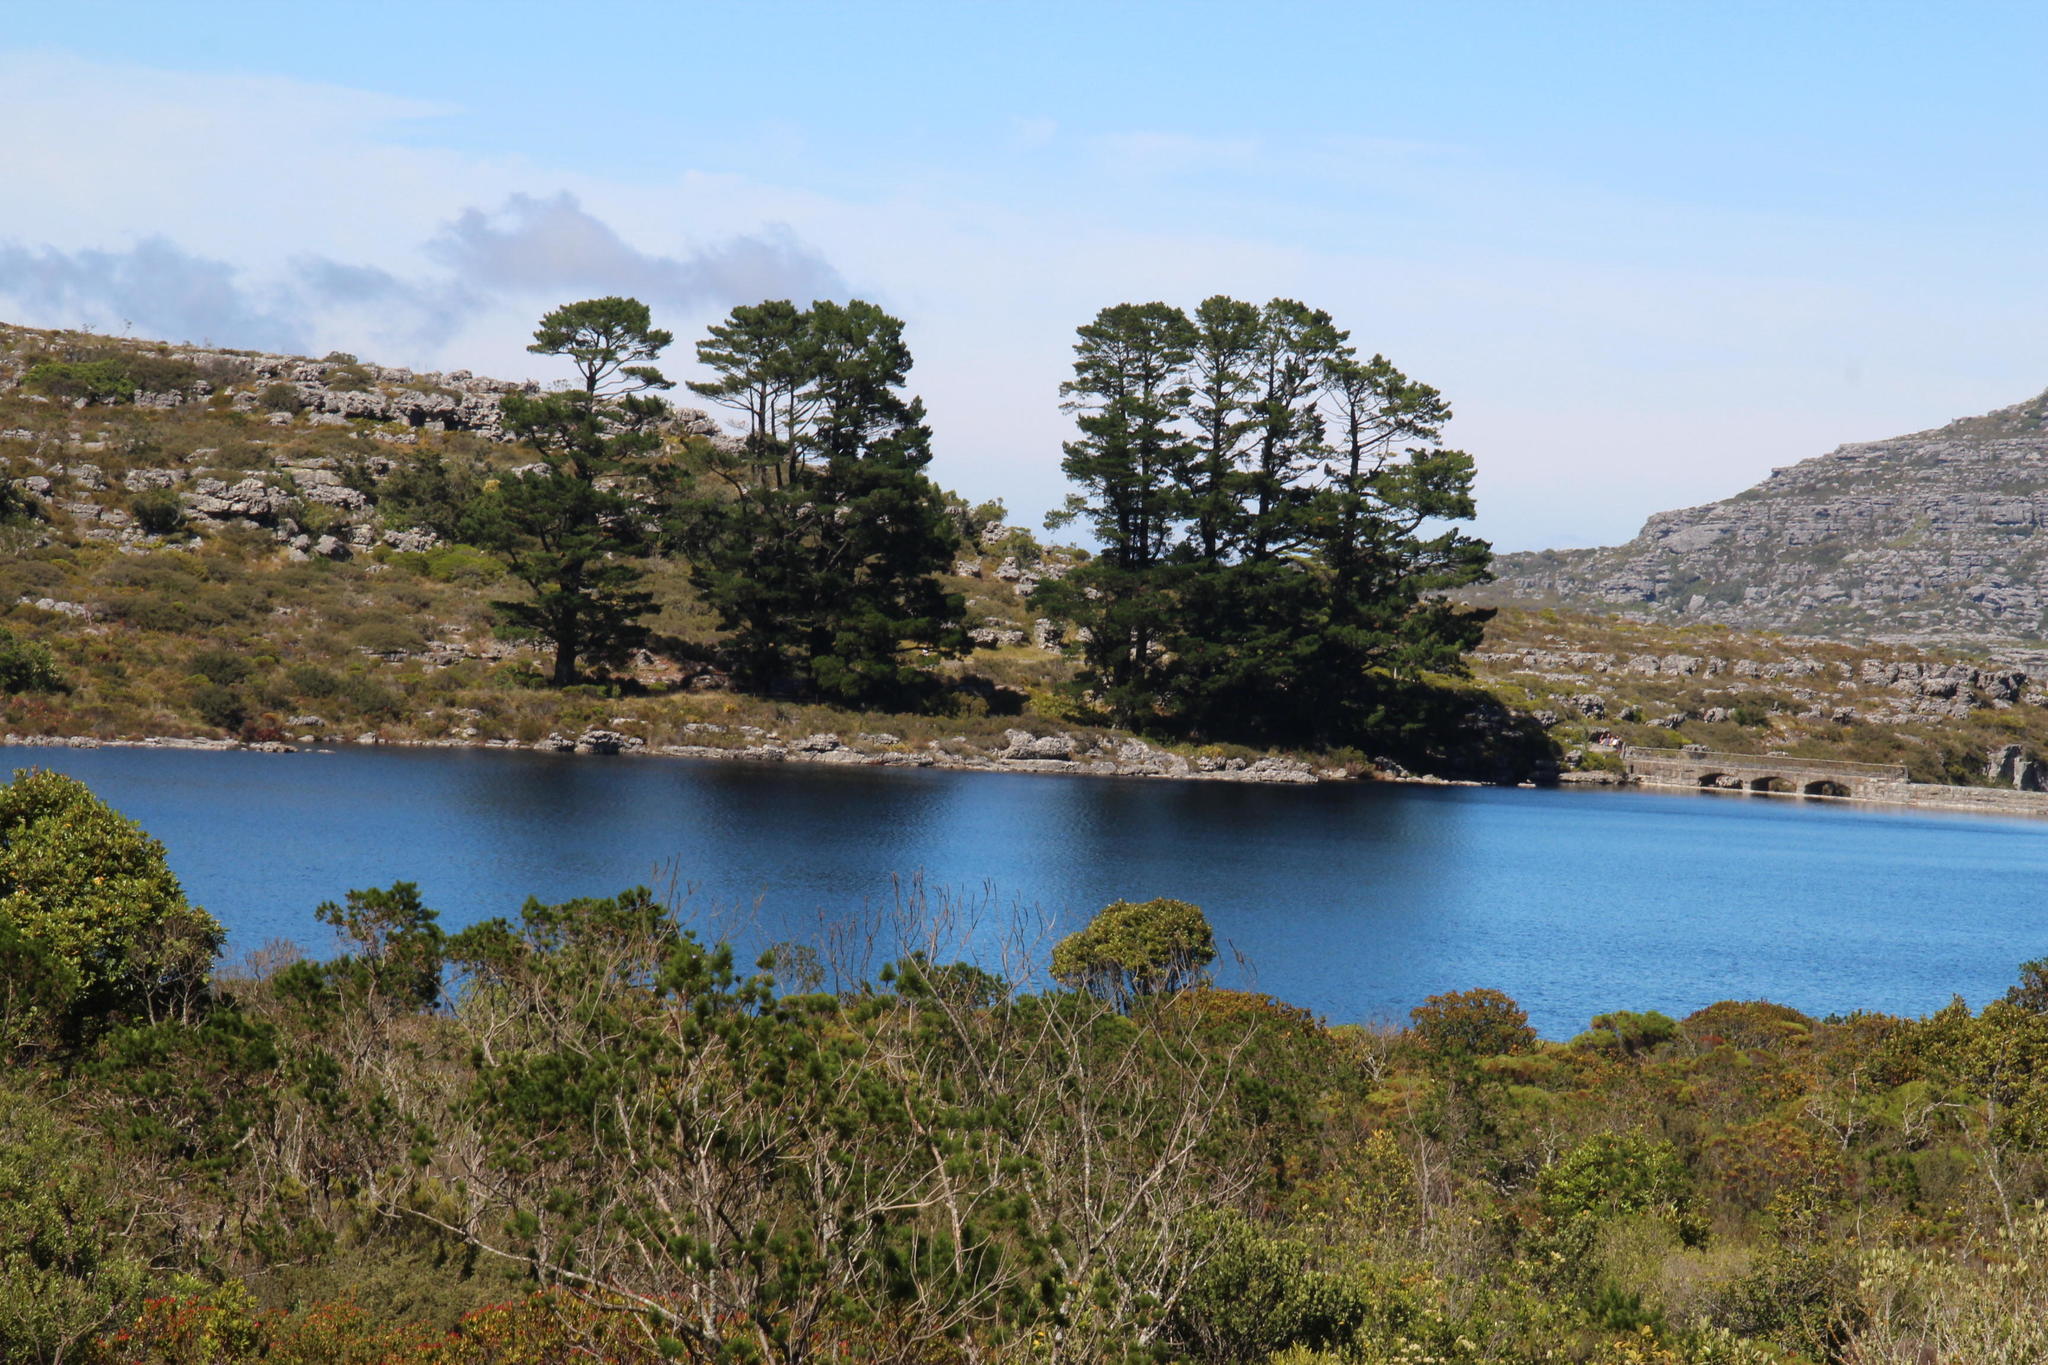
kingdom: Plantae
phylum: Tracheophyta
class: Pinopsida
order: Pinales
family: Pinaceae
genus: Pinus
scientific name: Pinus radiata
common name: Monterey pine
